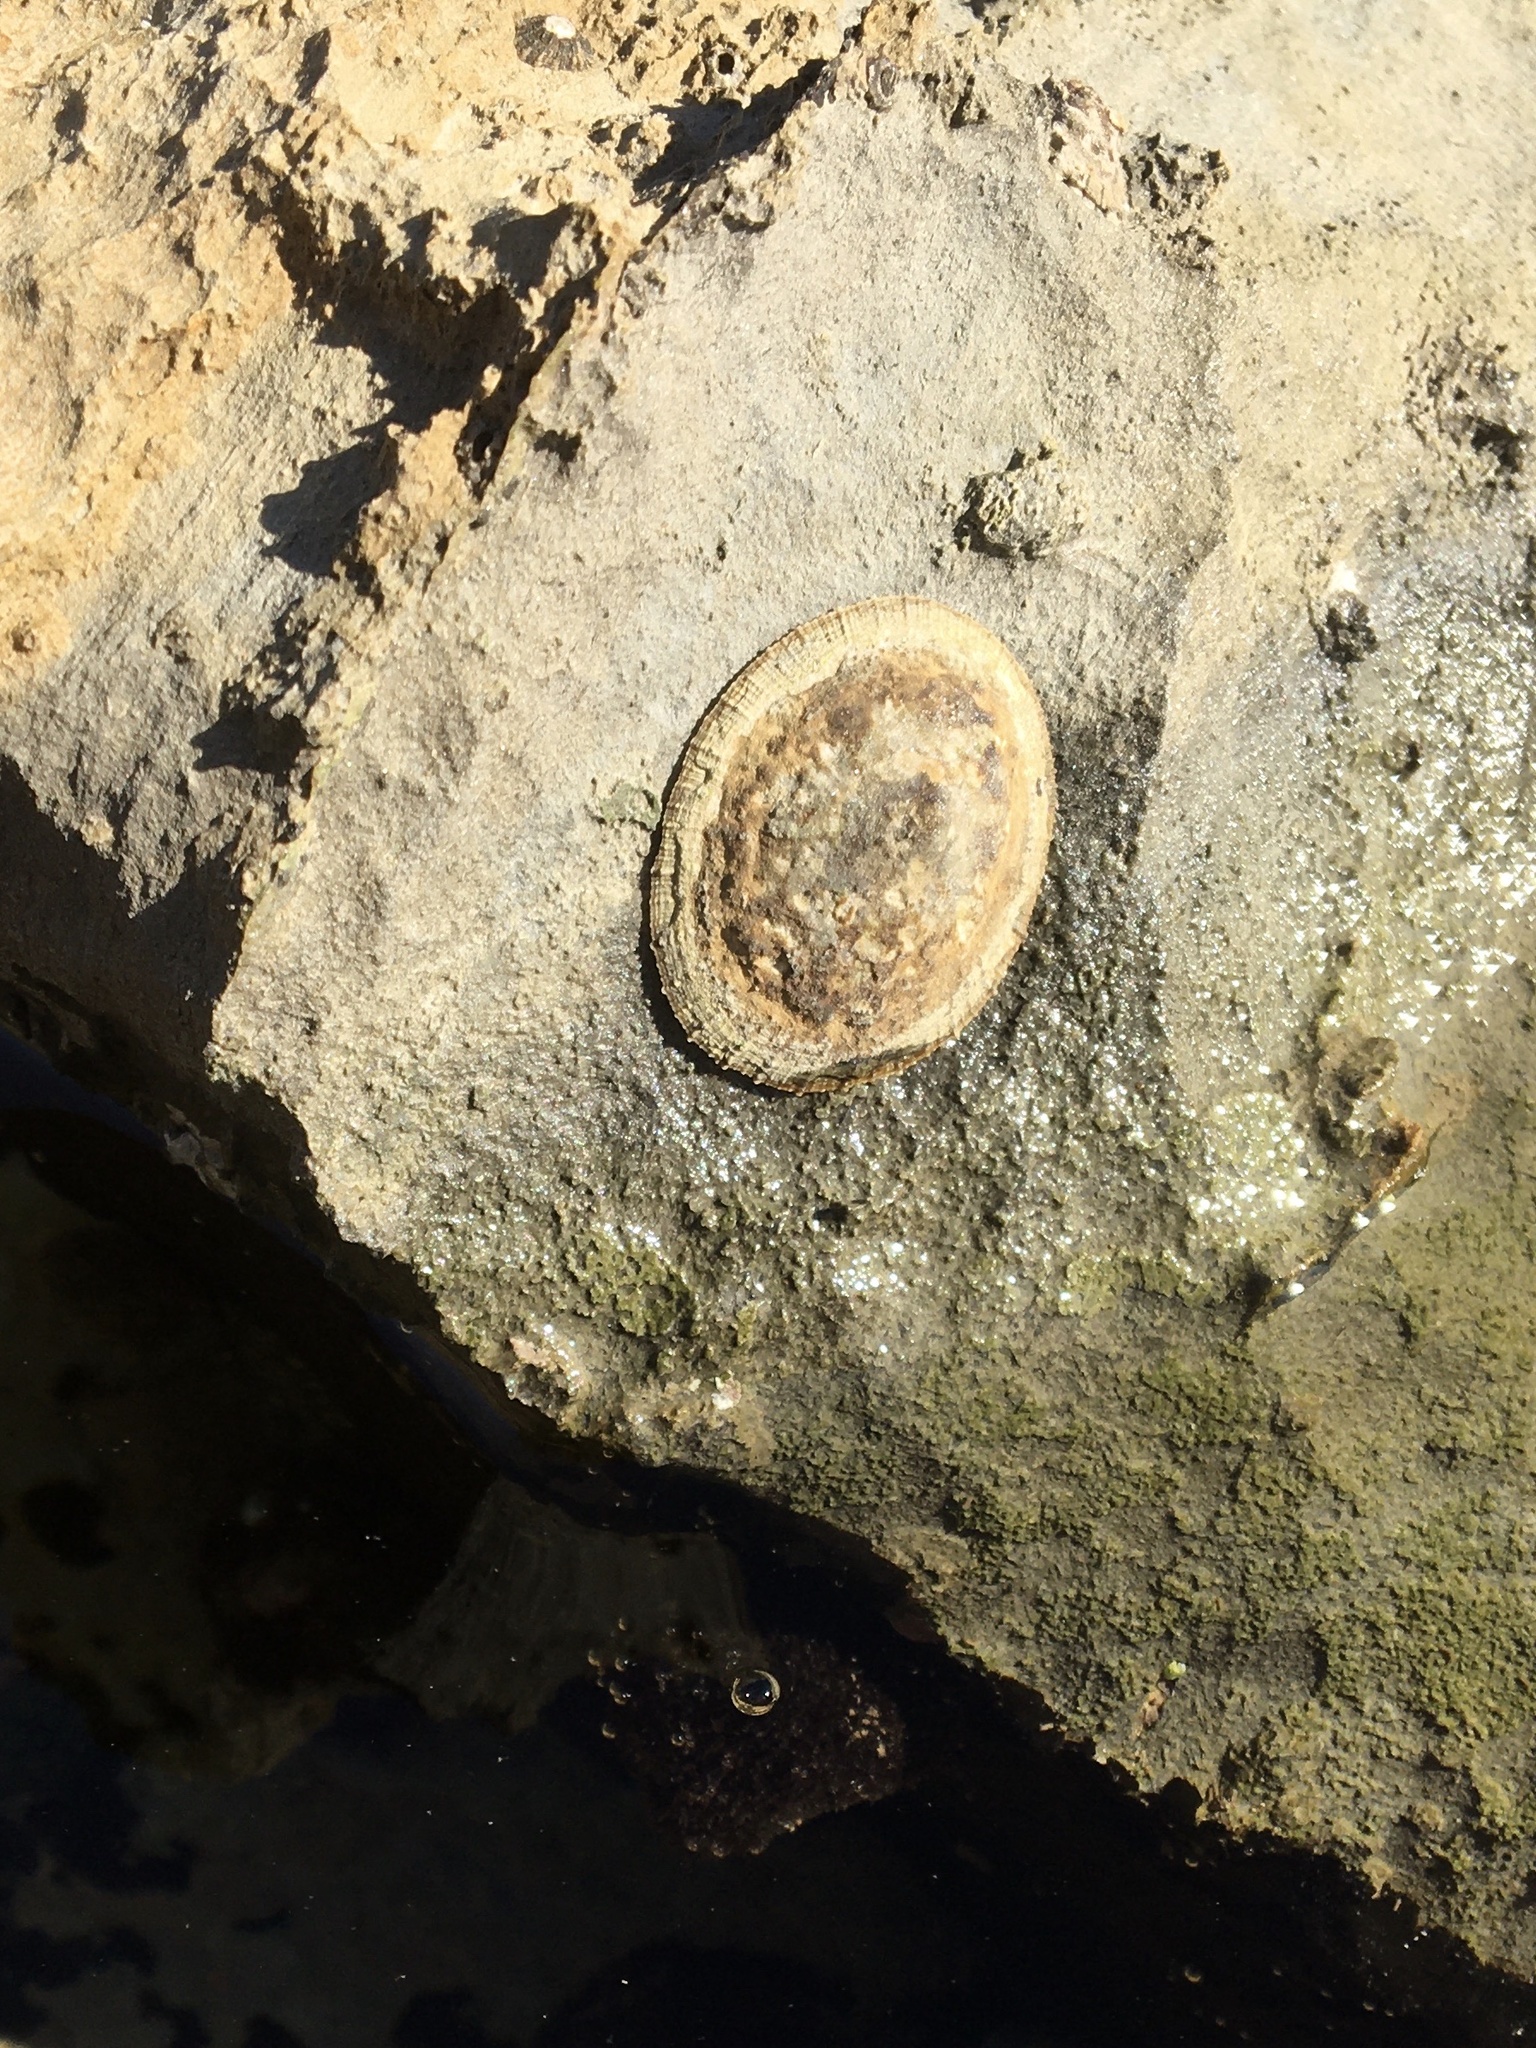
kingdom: Animalia
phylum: Mollusca
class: Gastropoda
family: Lottiidae
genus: Lottia
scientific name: Lottia limatula
